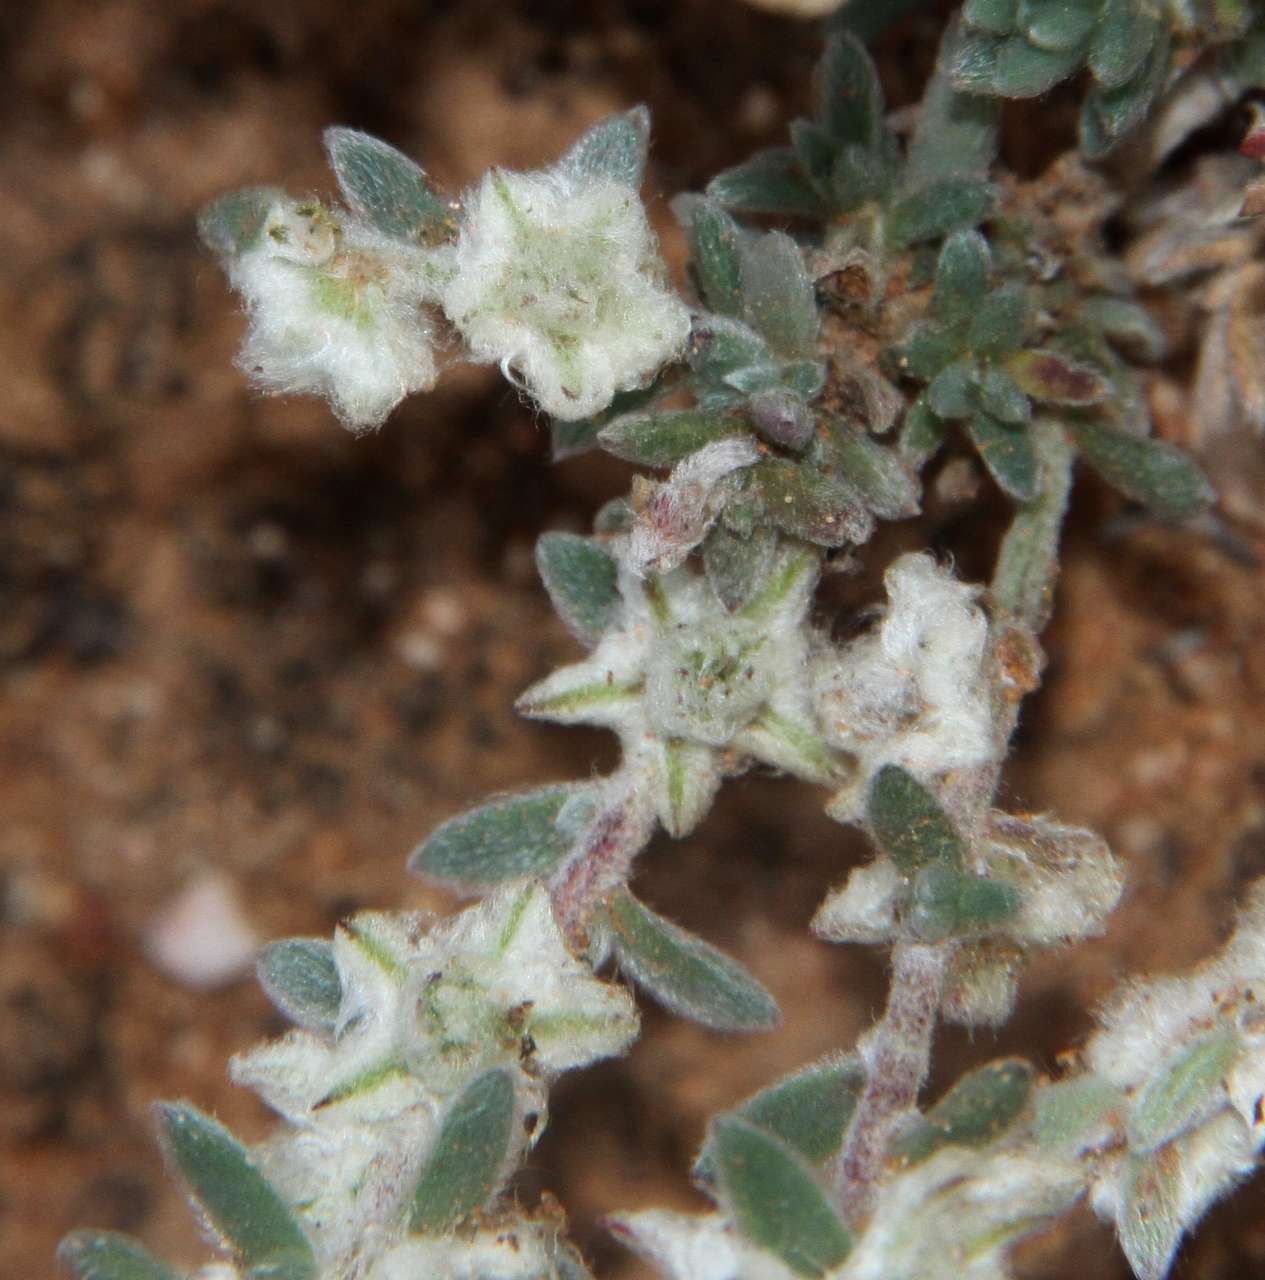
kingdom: Plantae
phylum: Tracheophyta
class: Magnoliopsida
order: Caryophyllales
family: Amaranthaceae
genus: Maireana
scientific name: Maireana sclerolaenoides
